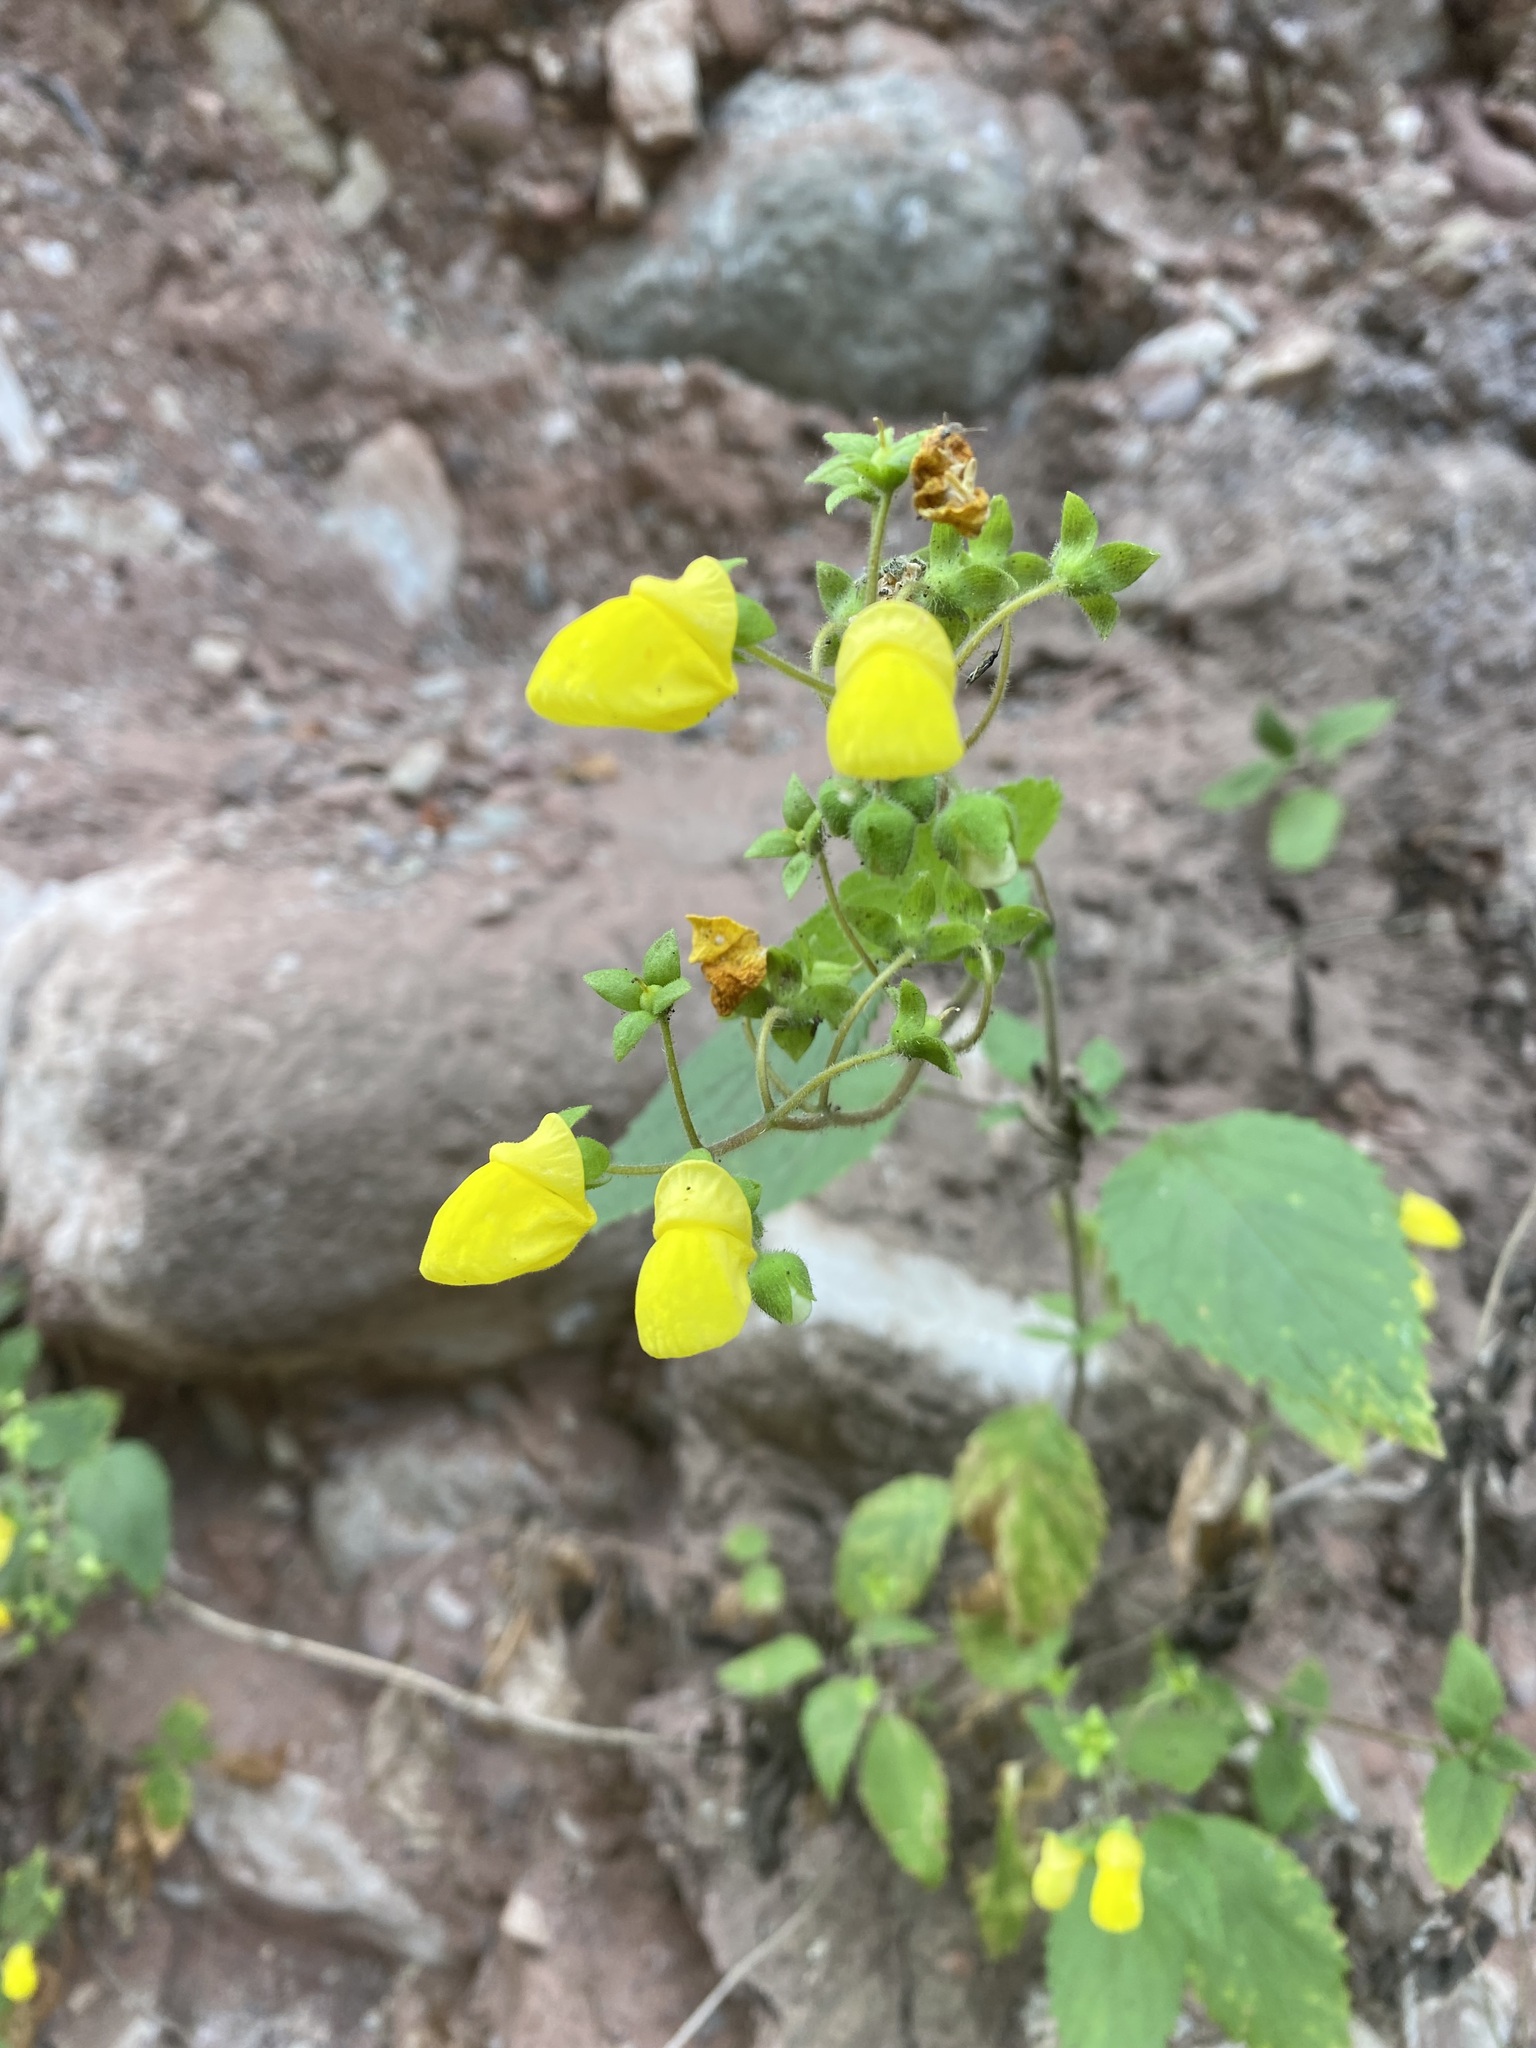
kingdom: Plantae
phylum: Tracheophyta
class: Magnoliopsida
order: Lamiales
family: Calceolariaceae
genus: Calceolaria
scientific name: Calceolaria elatior
